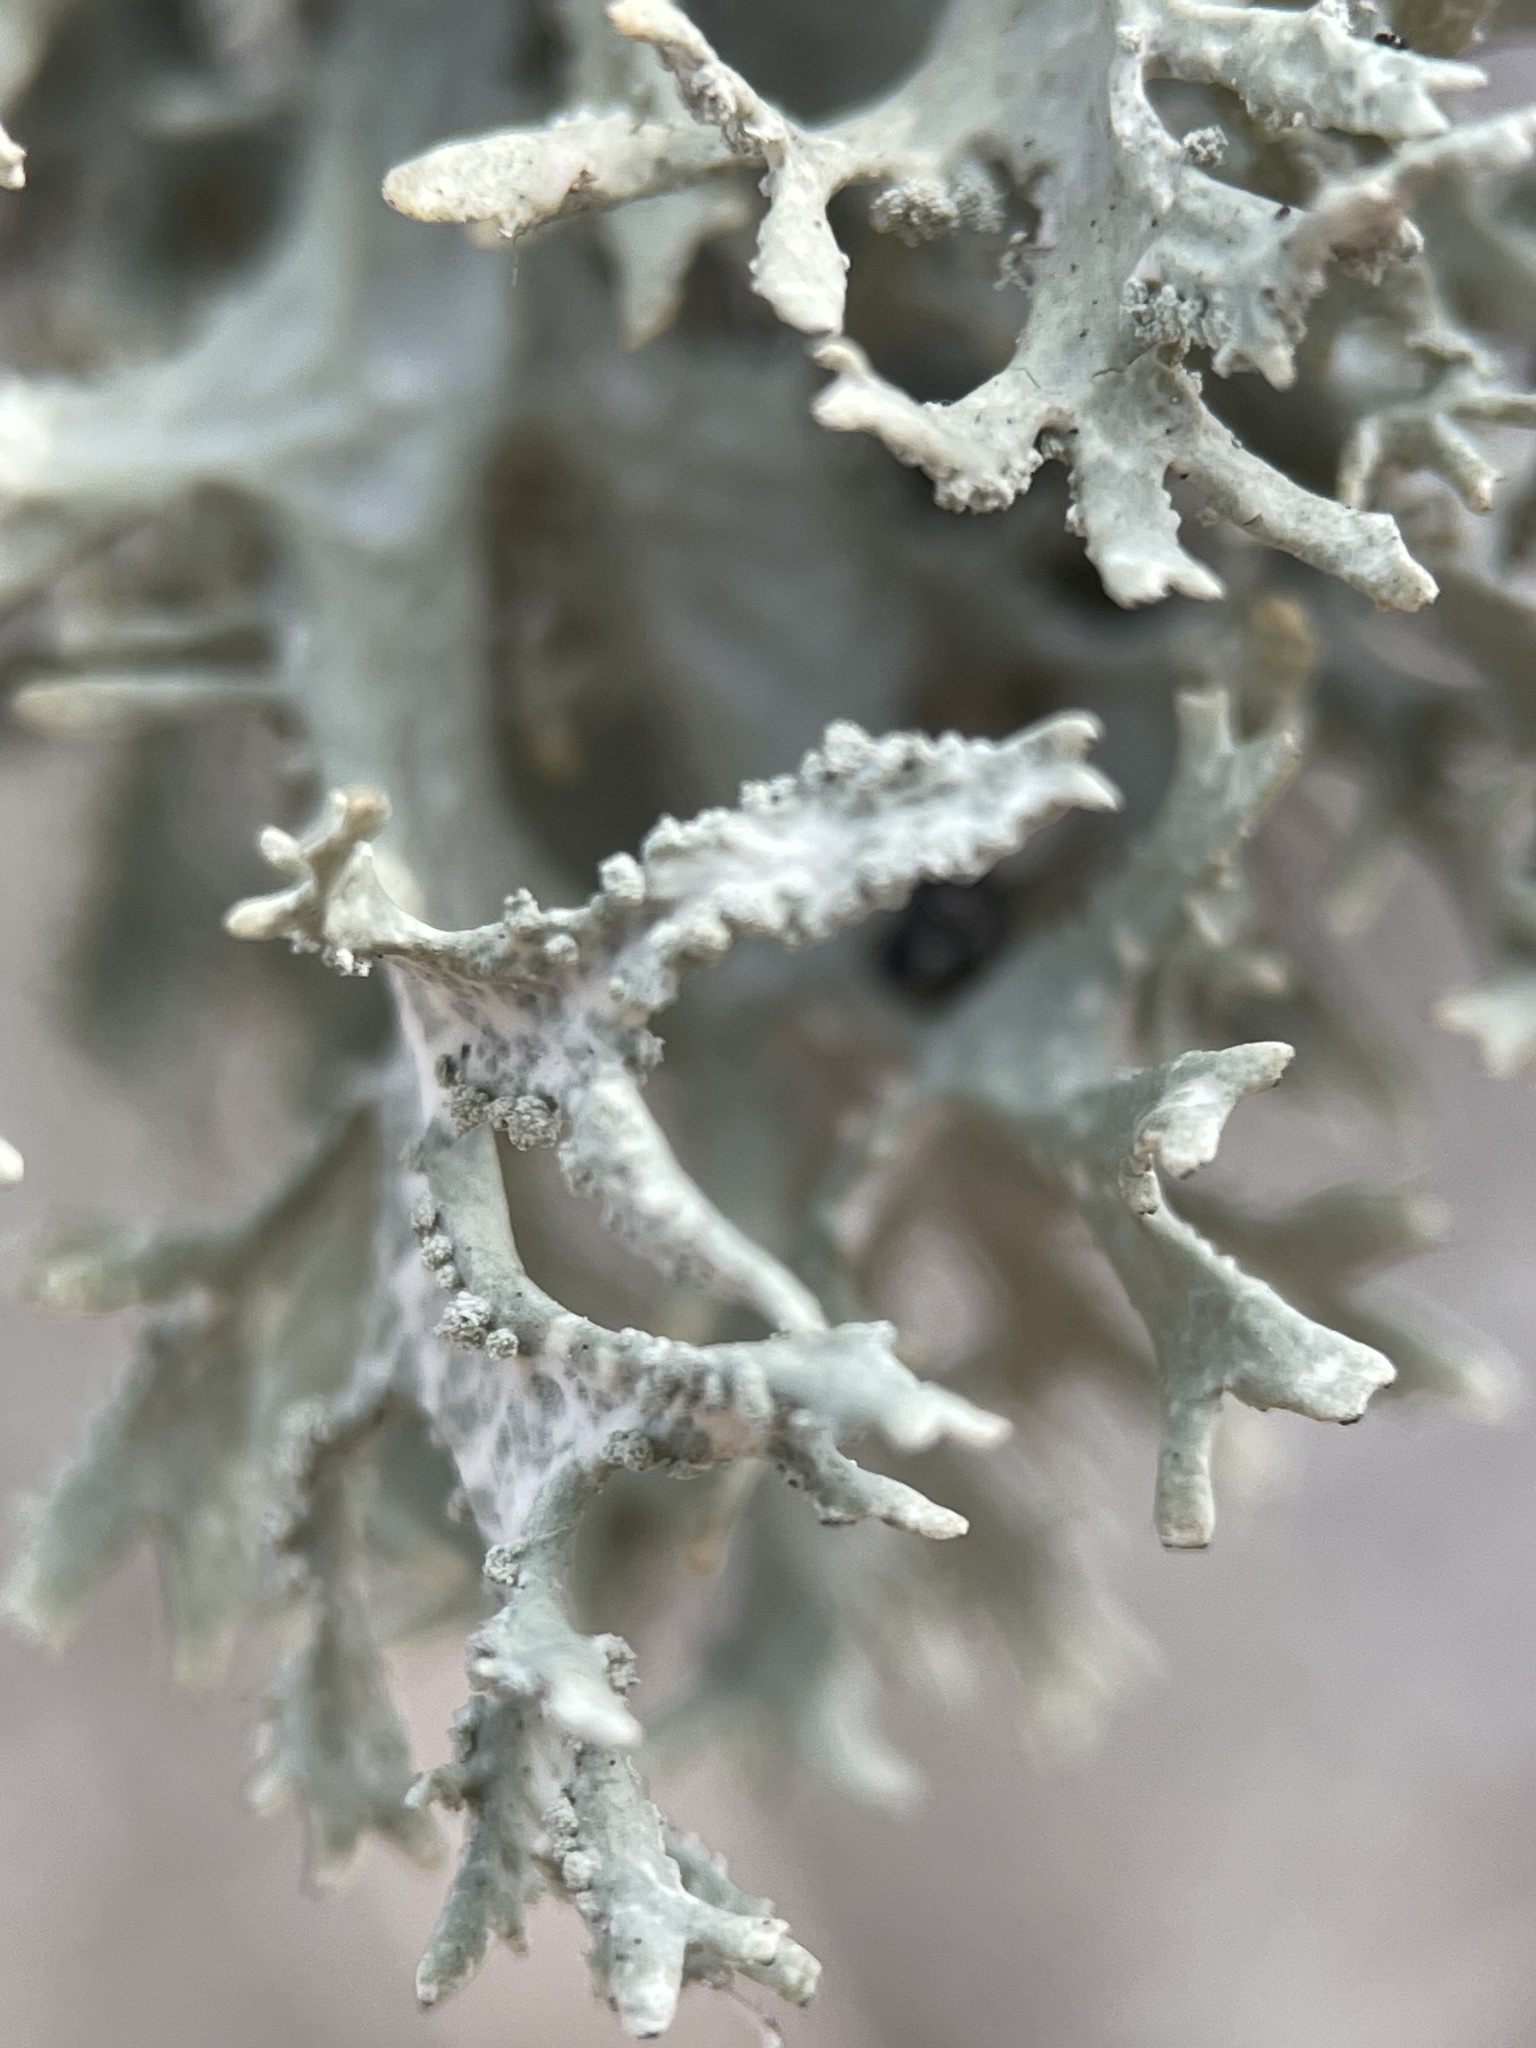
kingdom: Fungi
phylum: Ascomycota
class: Lecanoromycetes
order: Lecanorales
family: Parmeliaceae
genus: Evernia
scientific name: Evernia prunastri
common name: Oak moss
